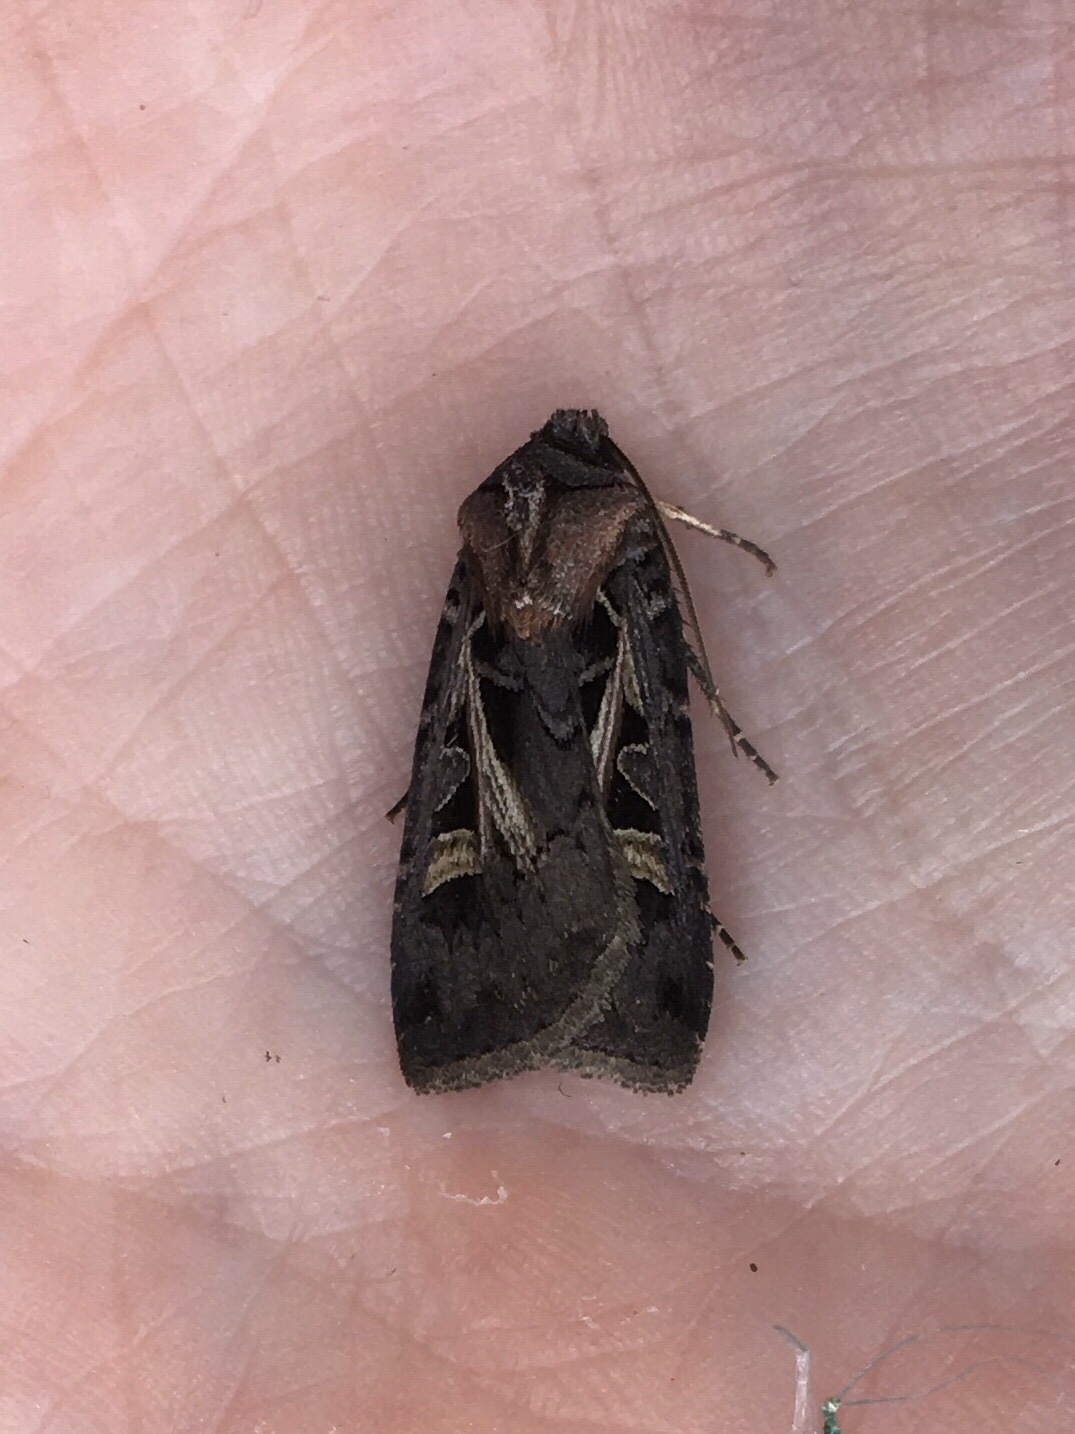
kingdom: Animalia
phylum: Arthropoda
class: Insecta
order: Lepidoptera
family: Noctuidae
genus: Feltia
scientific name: Feltia herilis
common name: Master's dart
